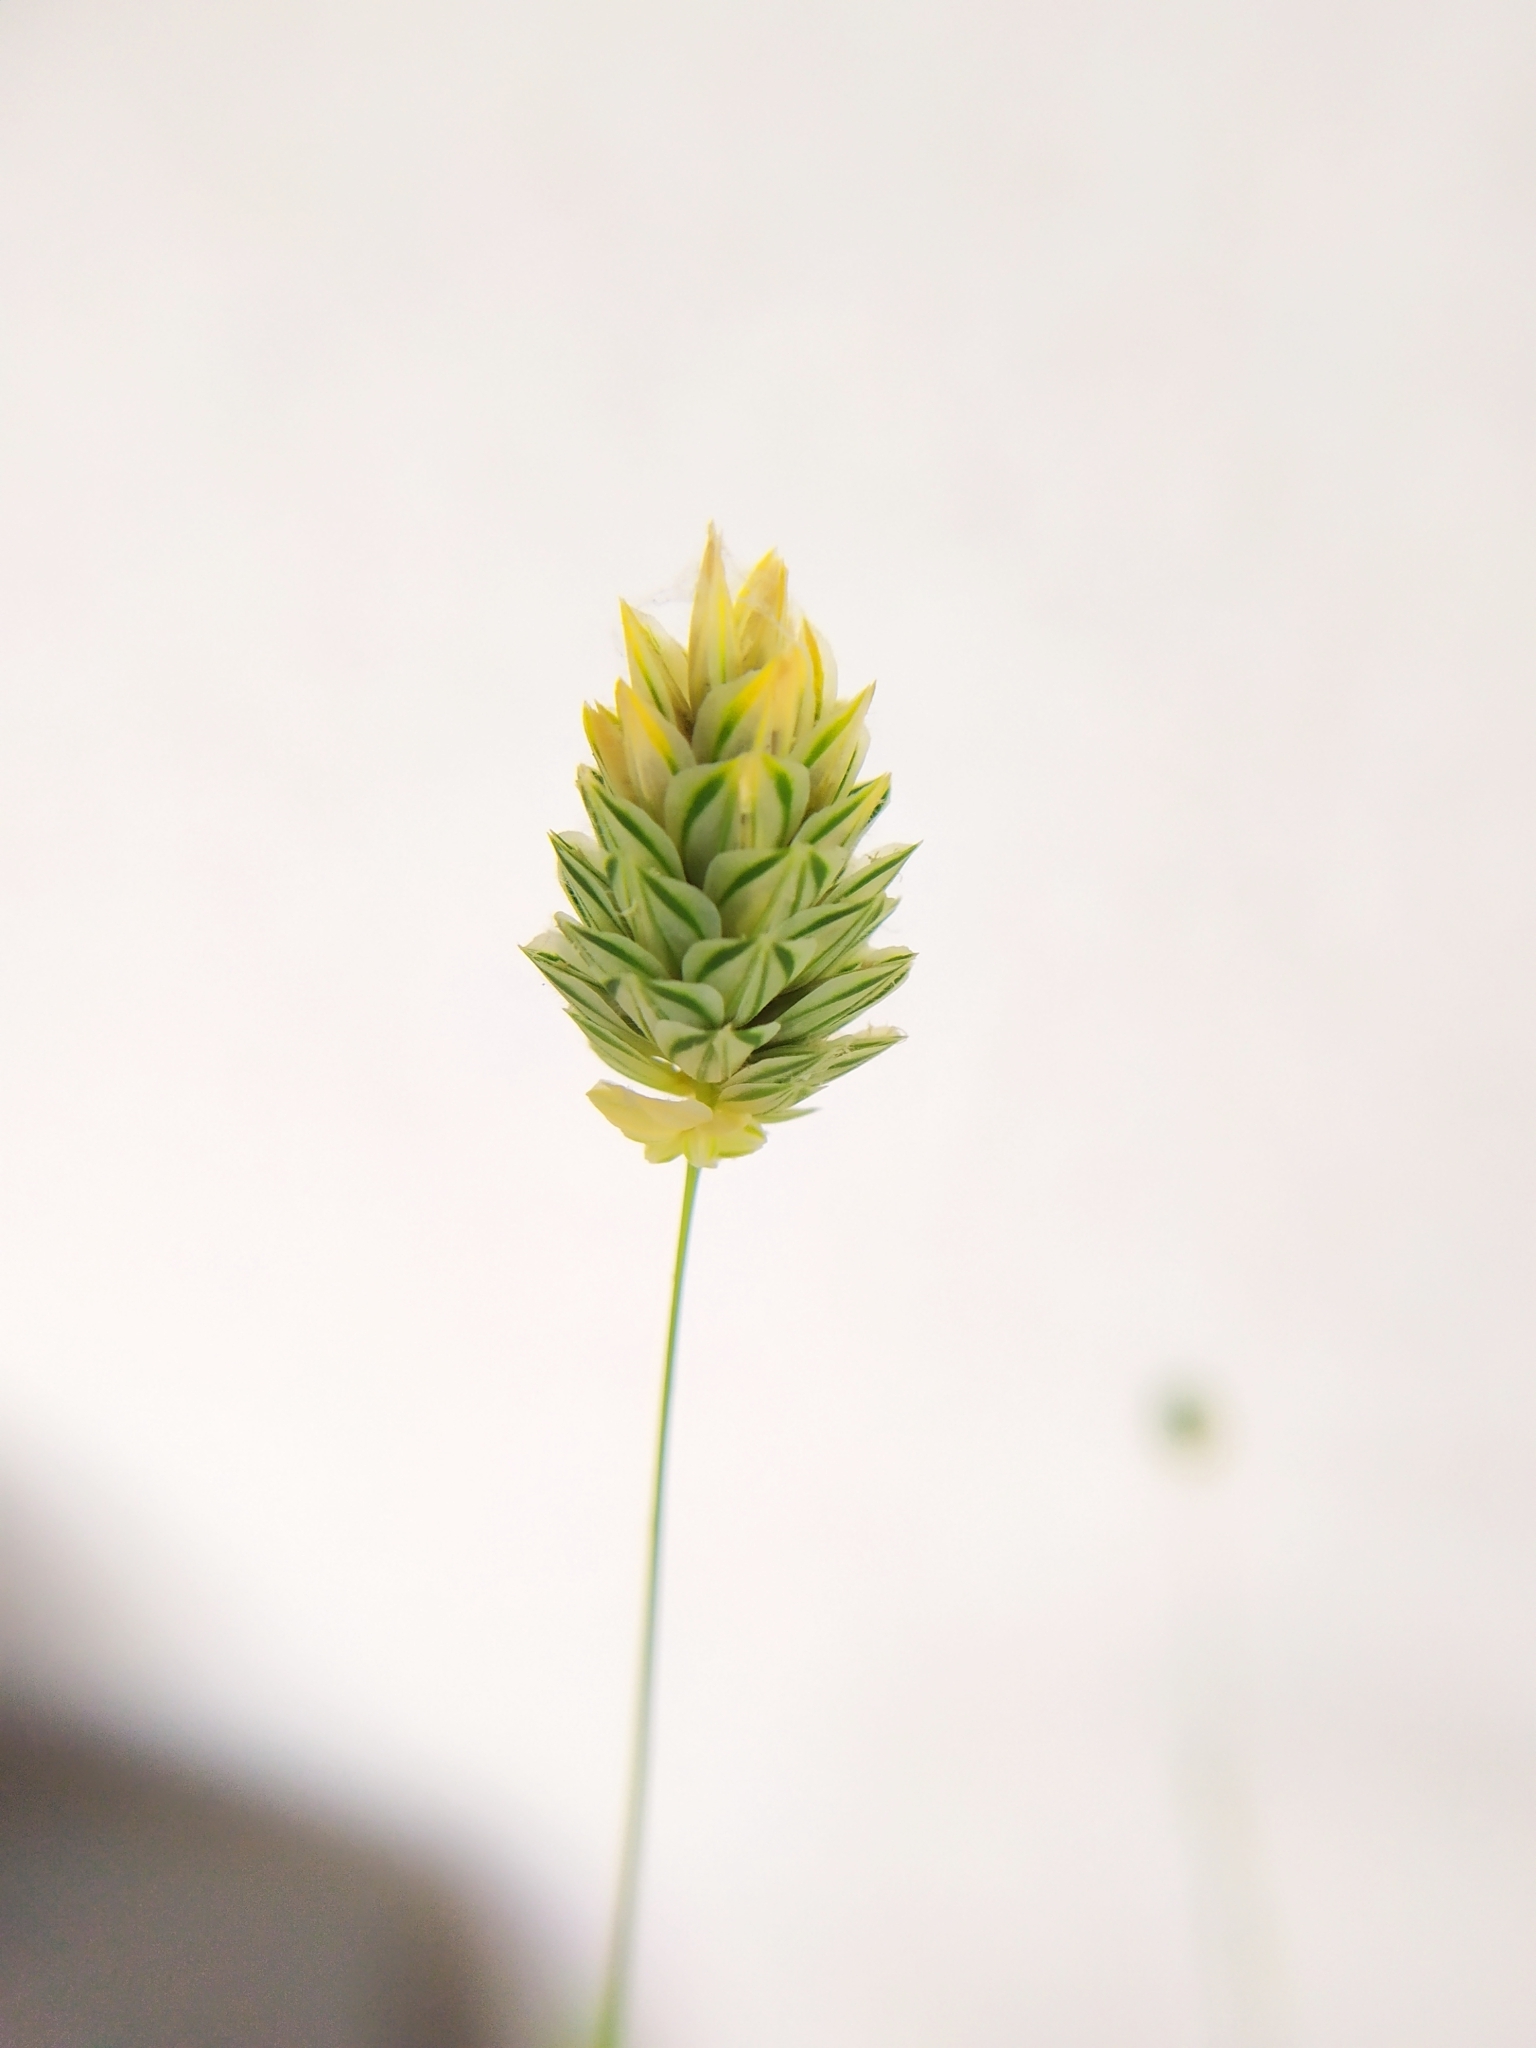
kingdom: Plantae
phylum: Tracheophyta
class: Liliopsida
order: Poales
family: Poaceae
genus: Phalaris
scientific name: Phalaris canariensis
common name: Annual canarygrass
